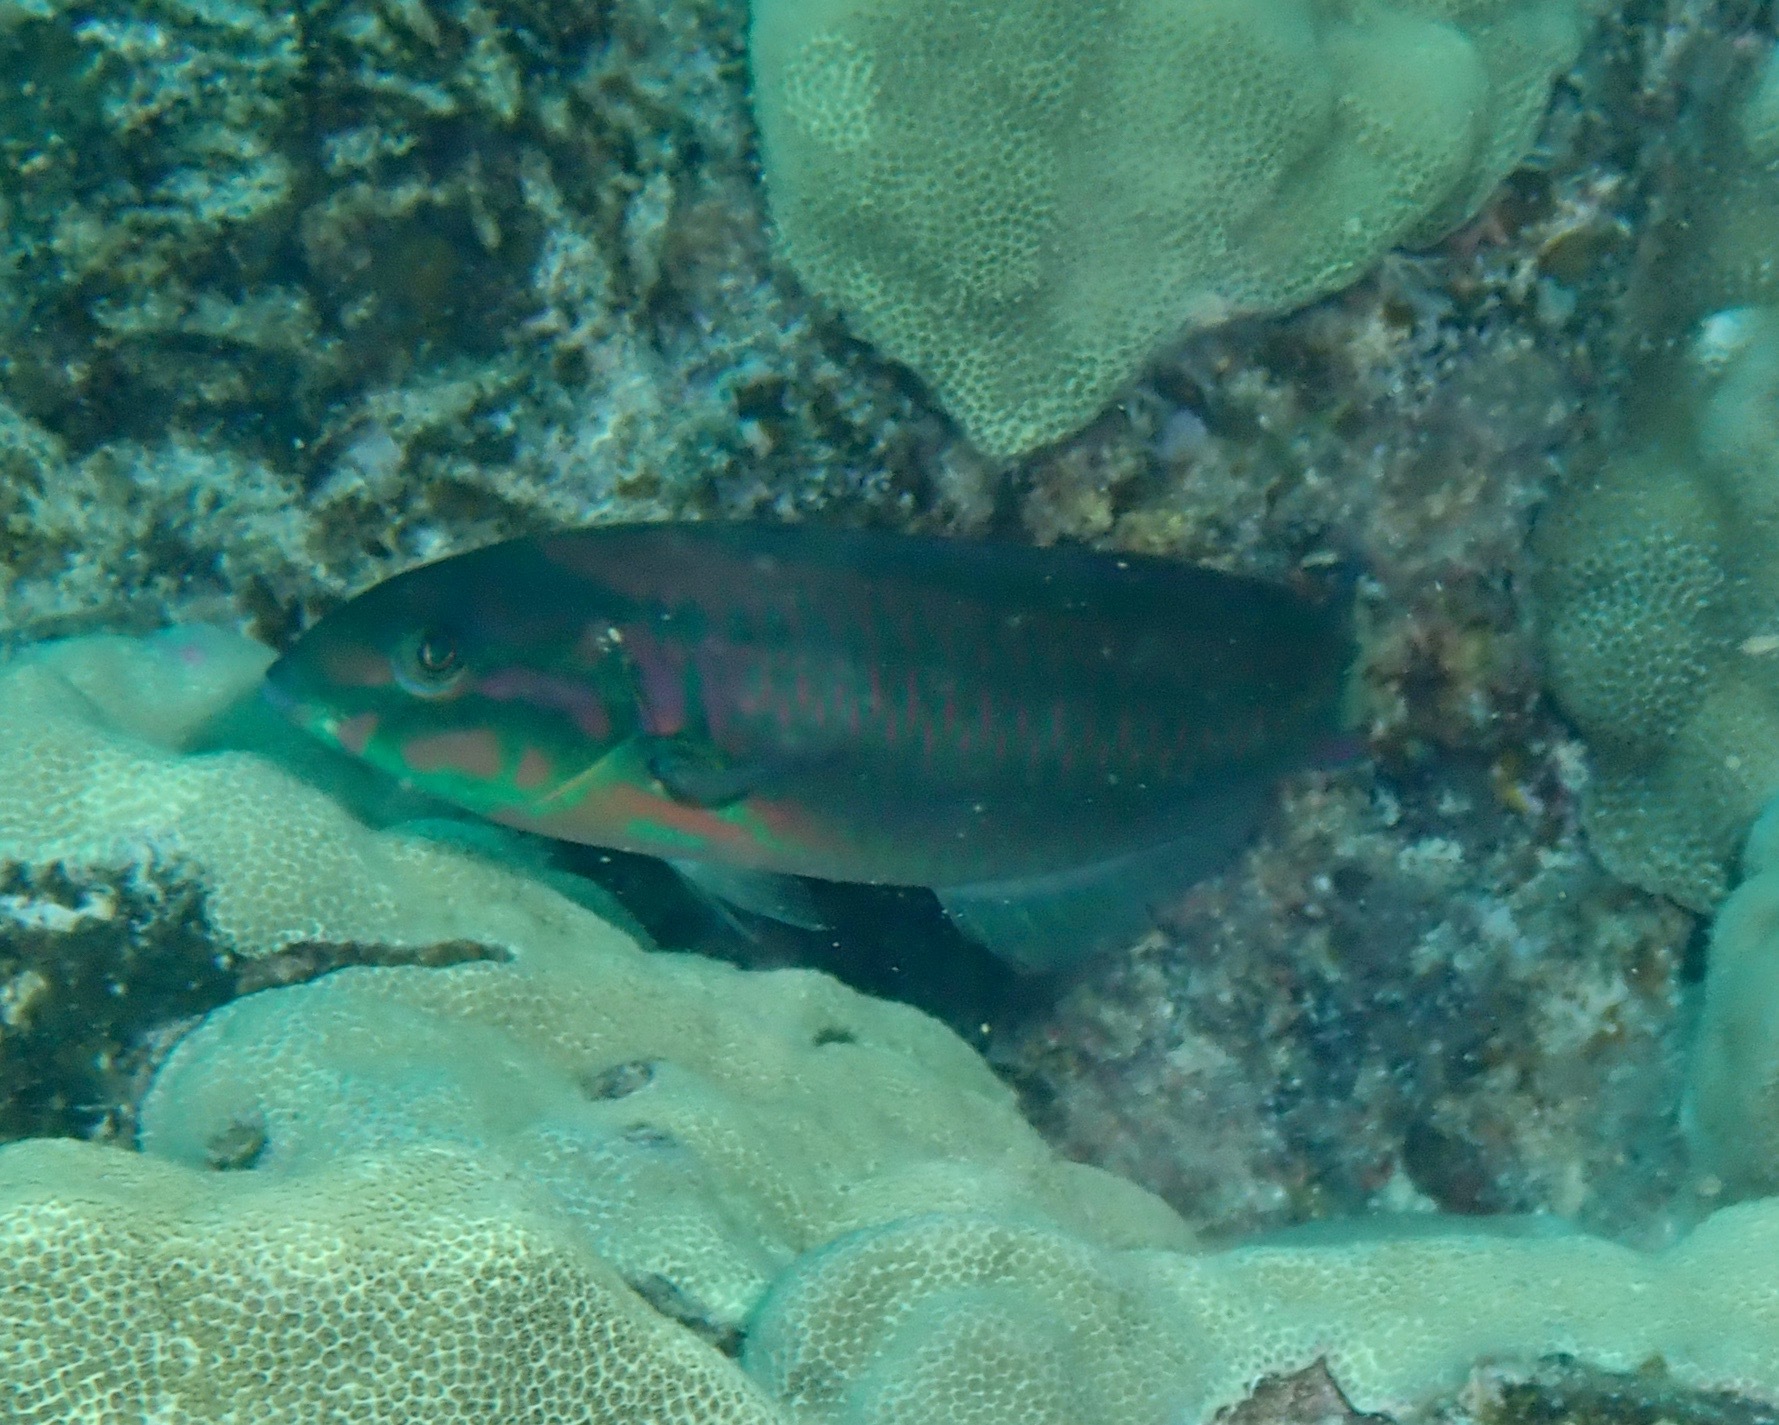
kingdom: Animalia
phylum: Chordata
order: Perciformes
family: Labridae
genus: Thalassoma
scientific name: Thalassoma quinquevittatum
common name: Five striped surge wrasse
